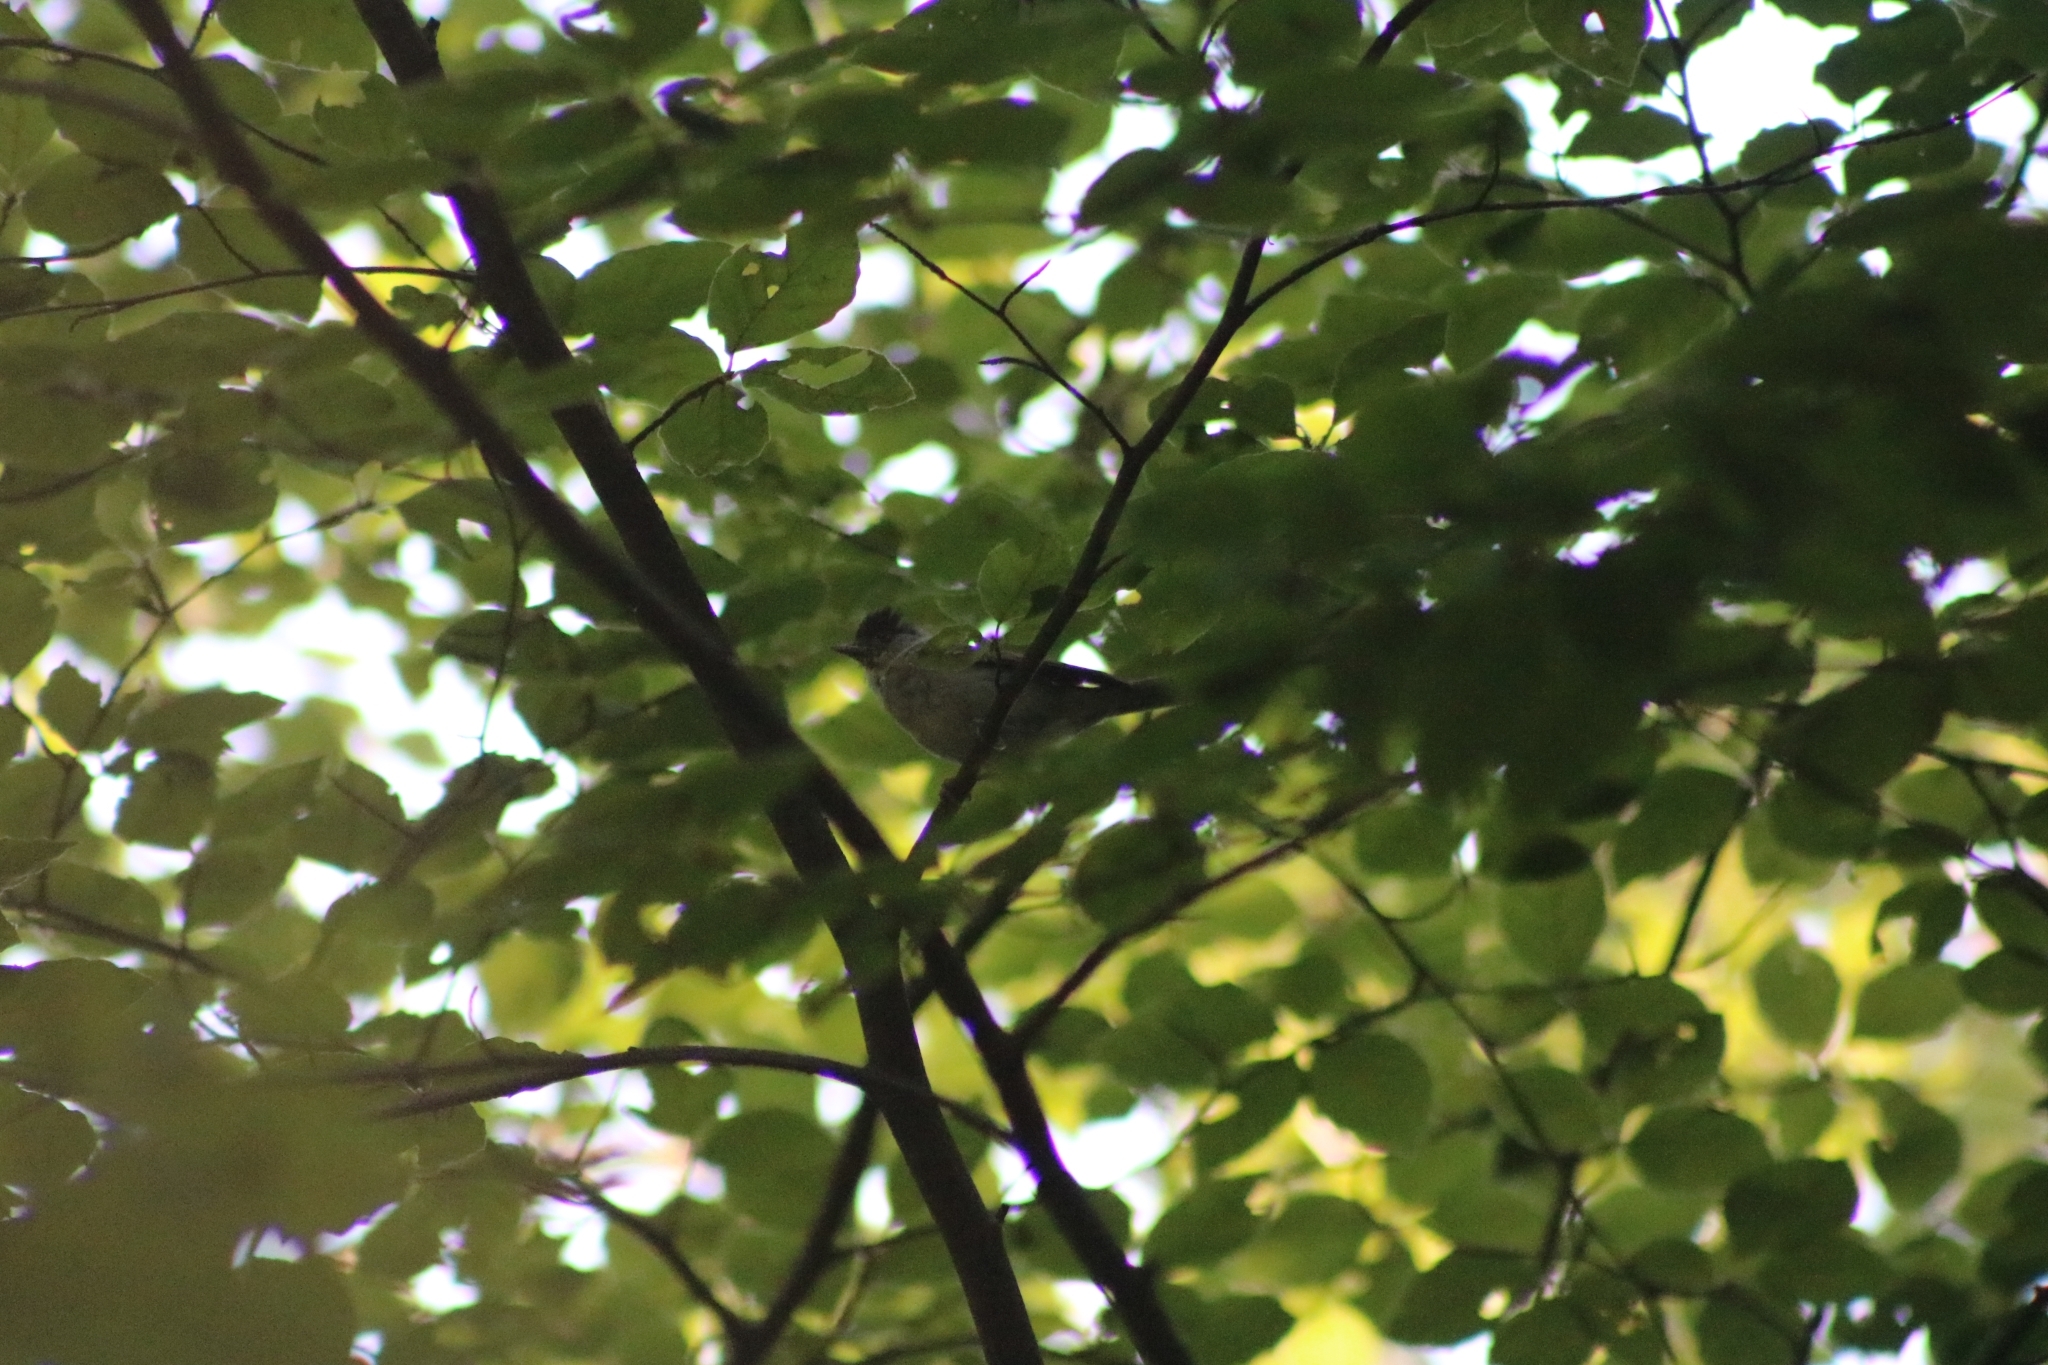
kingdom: Animalia
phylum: Chordata
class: Aves
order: Passeriformes
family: Sylviidae
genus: Sylvia
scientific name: Sylvia atricapilla
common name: Eurasian blackcap
